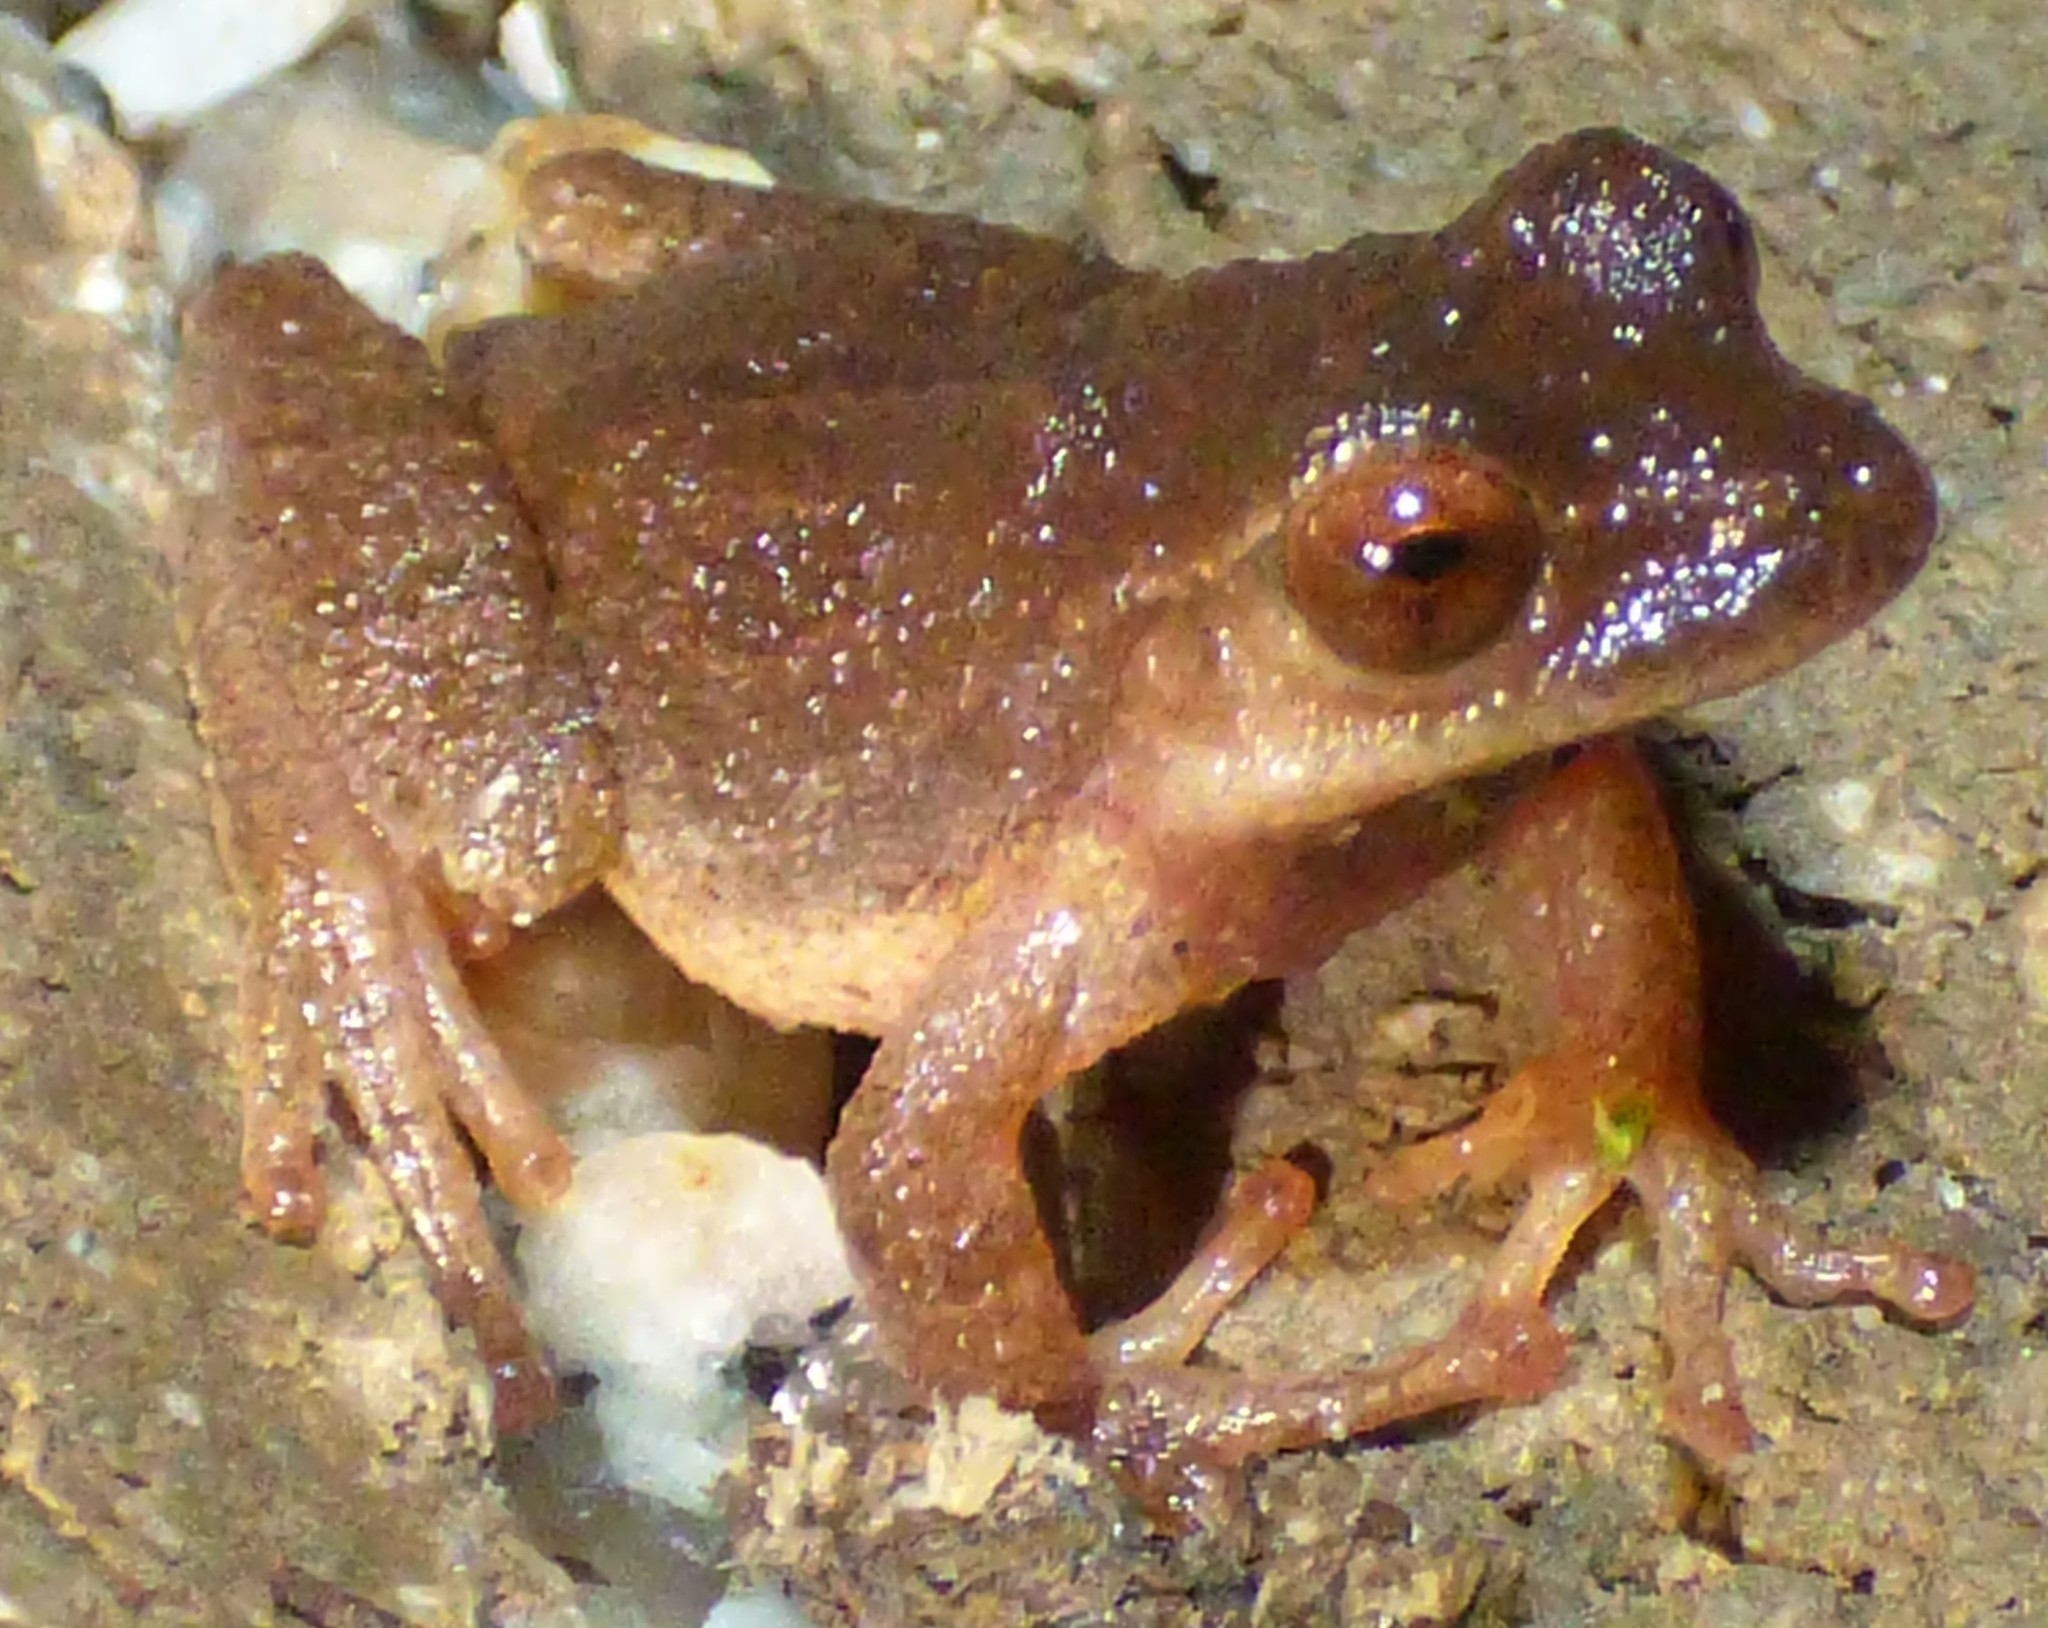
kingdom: Animalia
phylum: Chordata
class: Amphibia
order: Anura
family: Hylidae
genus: Pseudacris
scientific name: Pseudacris crucifer
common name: Spring peeper
